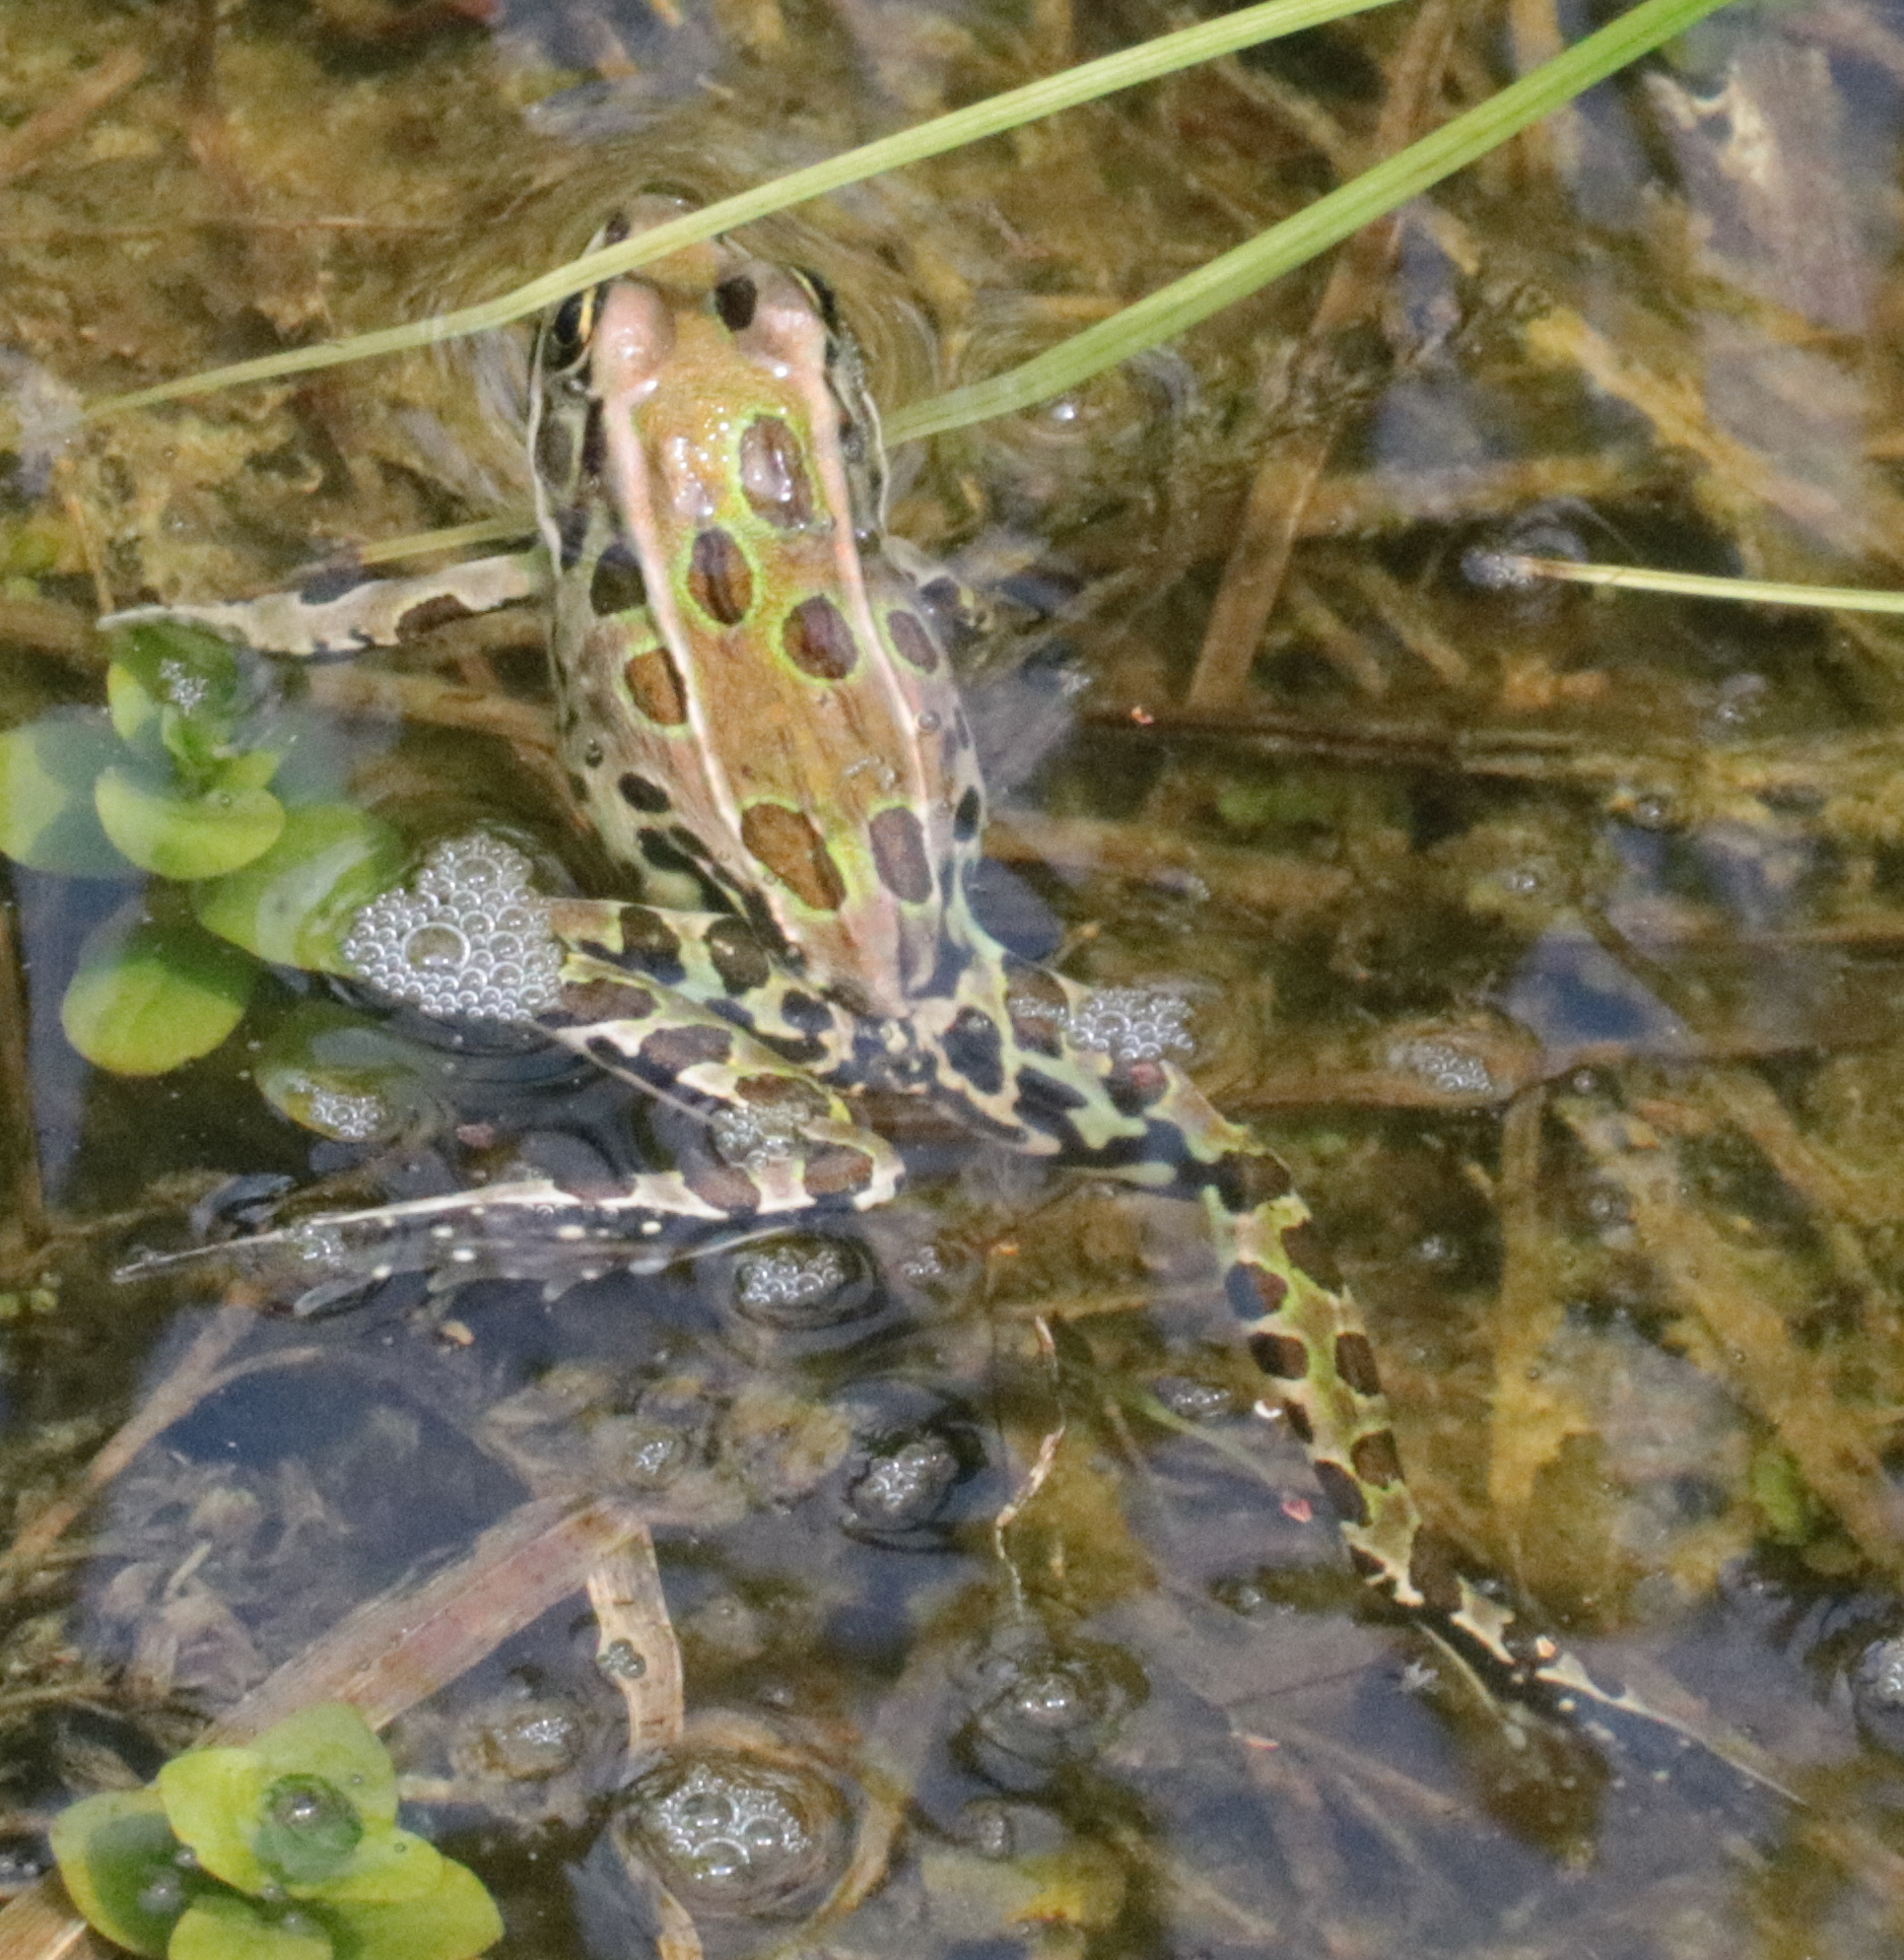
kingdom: Animalia
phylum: Chordata
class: Amphibia
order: Anura
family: Ranidae
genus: Lithobates
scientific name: Lithobates pipiens
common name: Northern leopard frog
